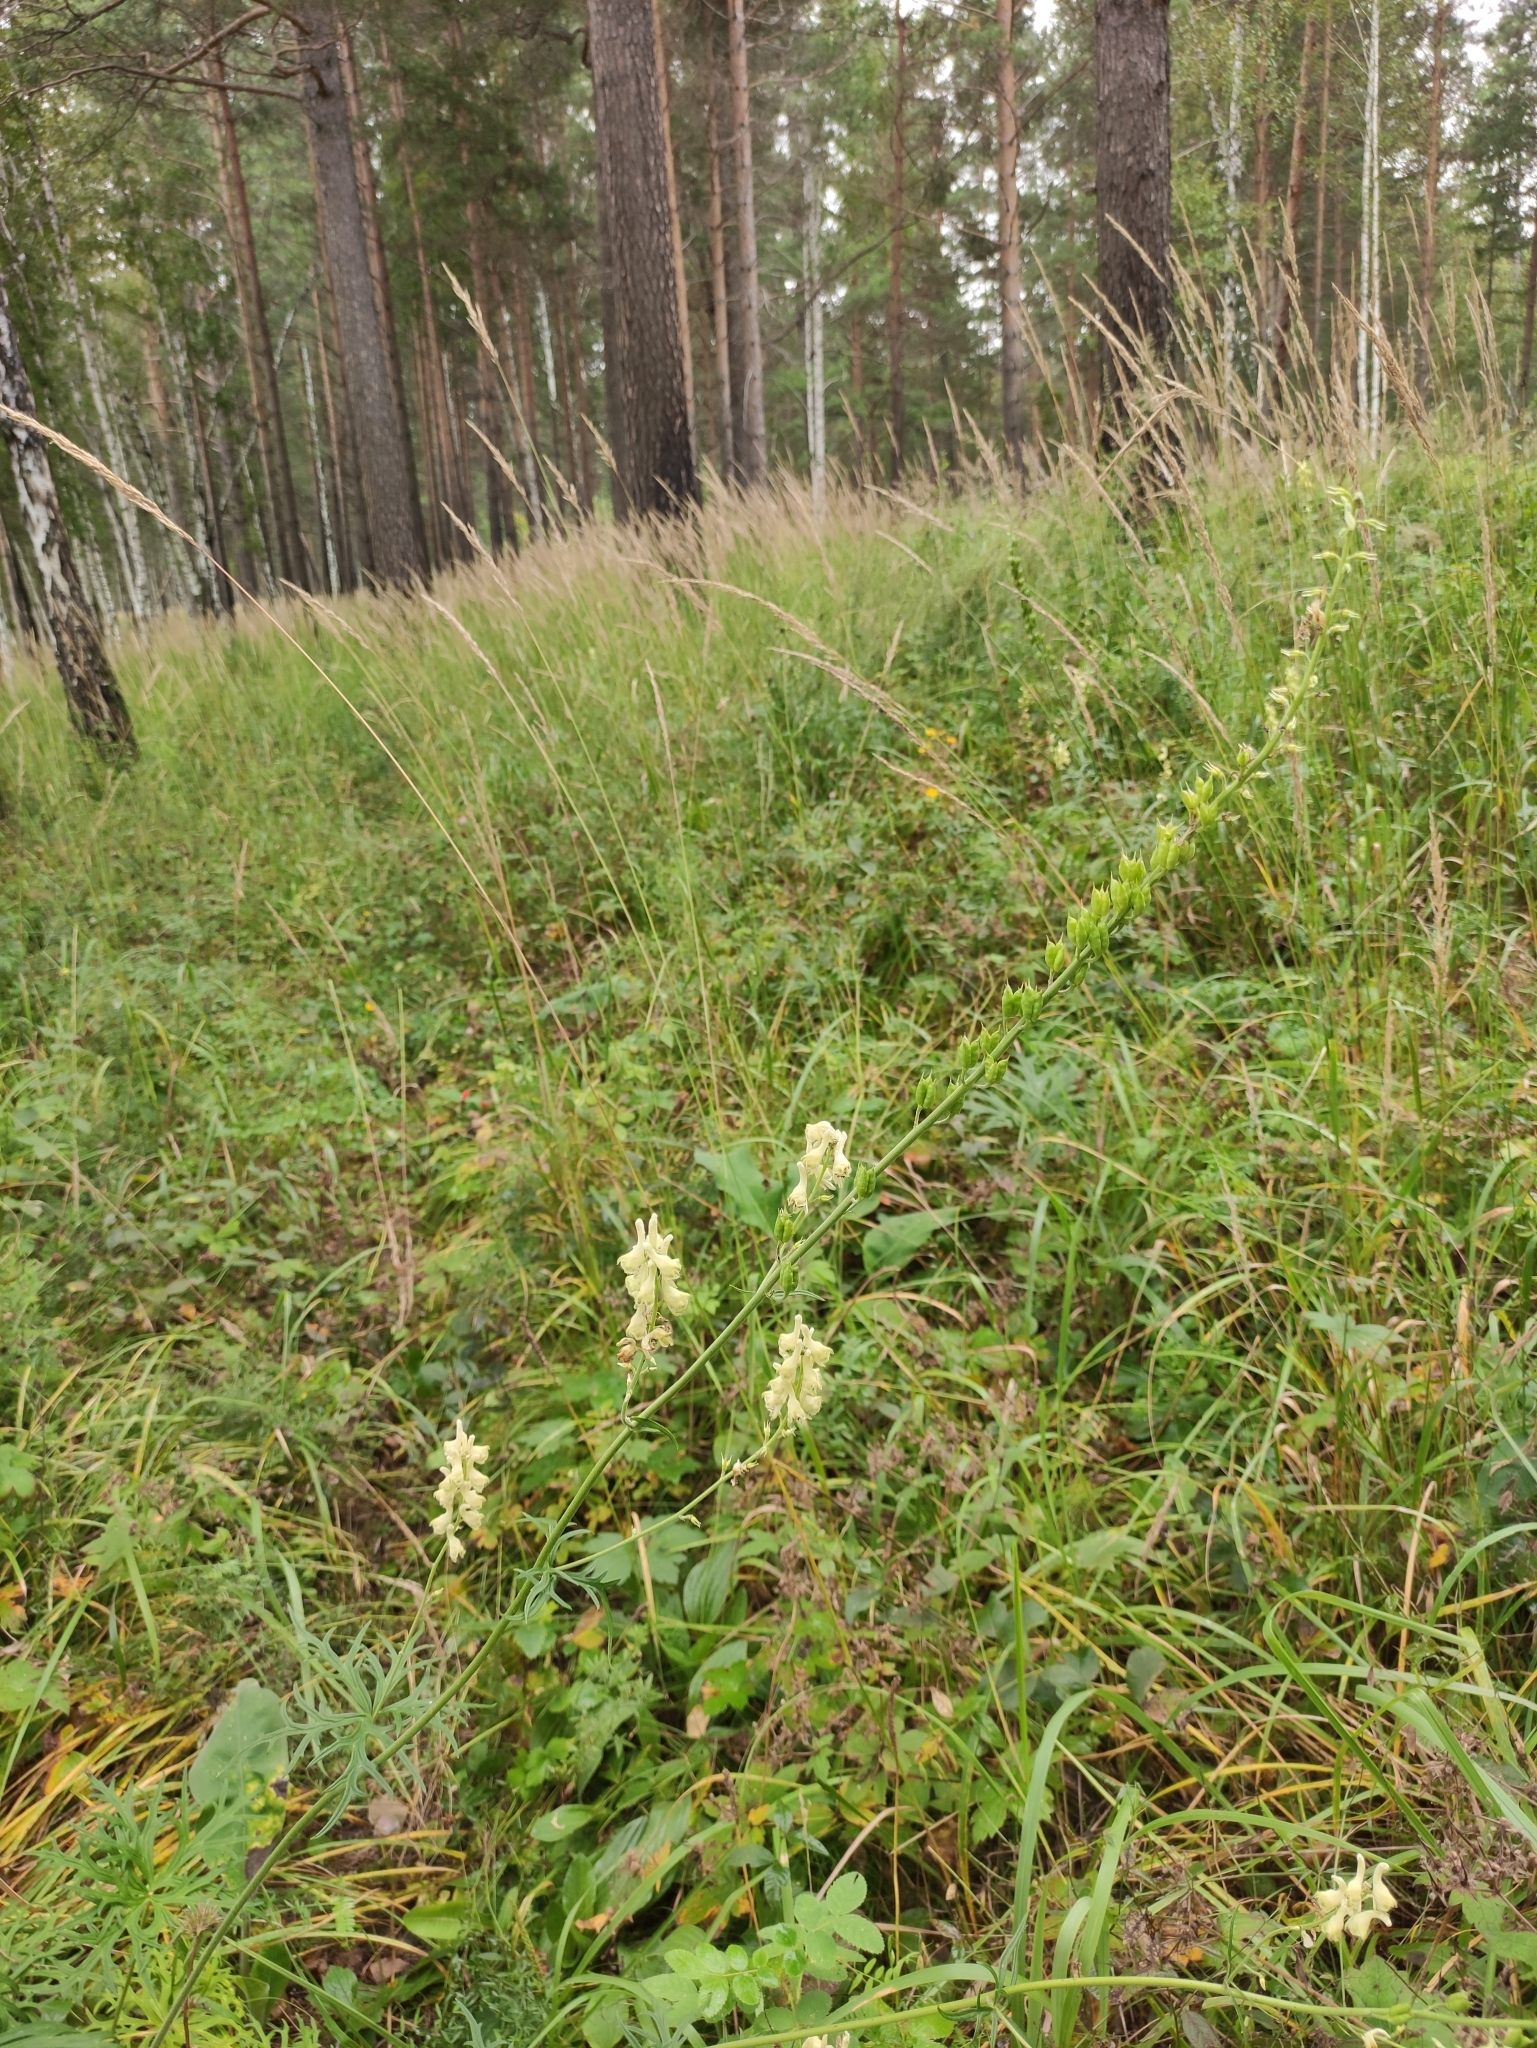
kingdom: Plantae
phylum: Tracheophyta
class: Magnoliopsida
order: Ranunculales
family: Ranunculaceae
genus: Aconitum
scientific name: Aconitum barbatum
